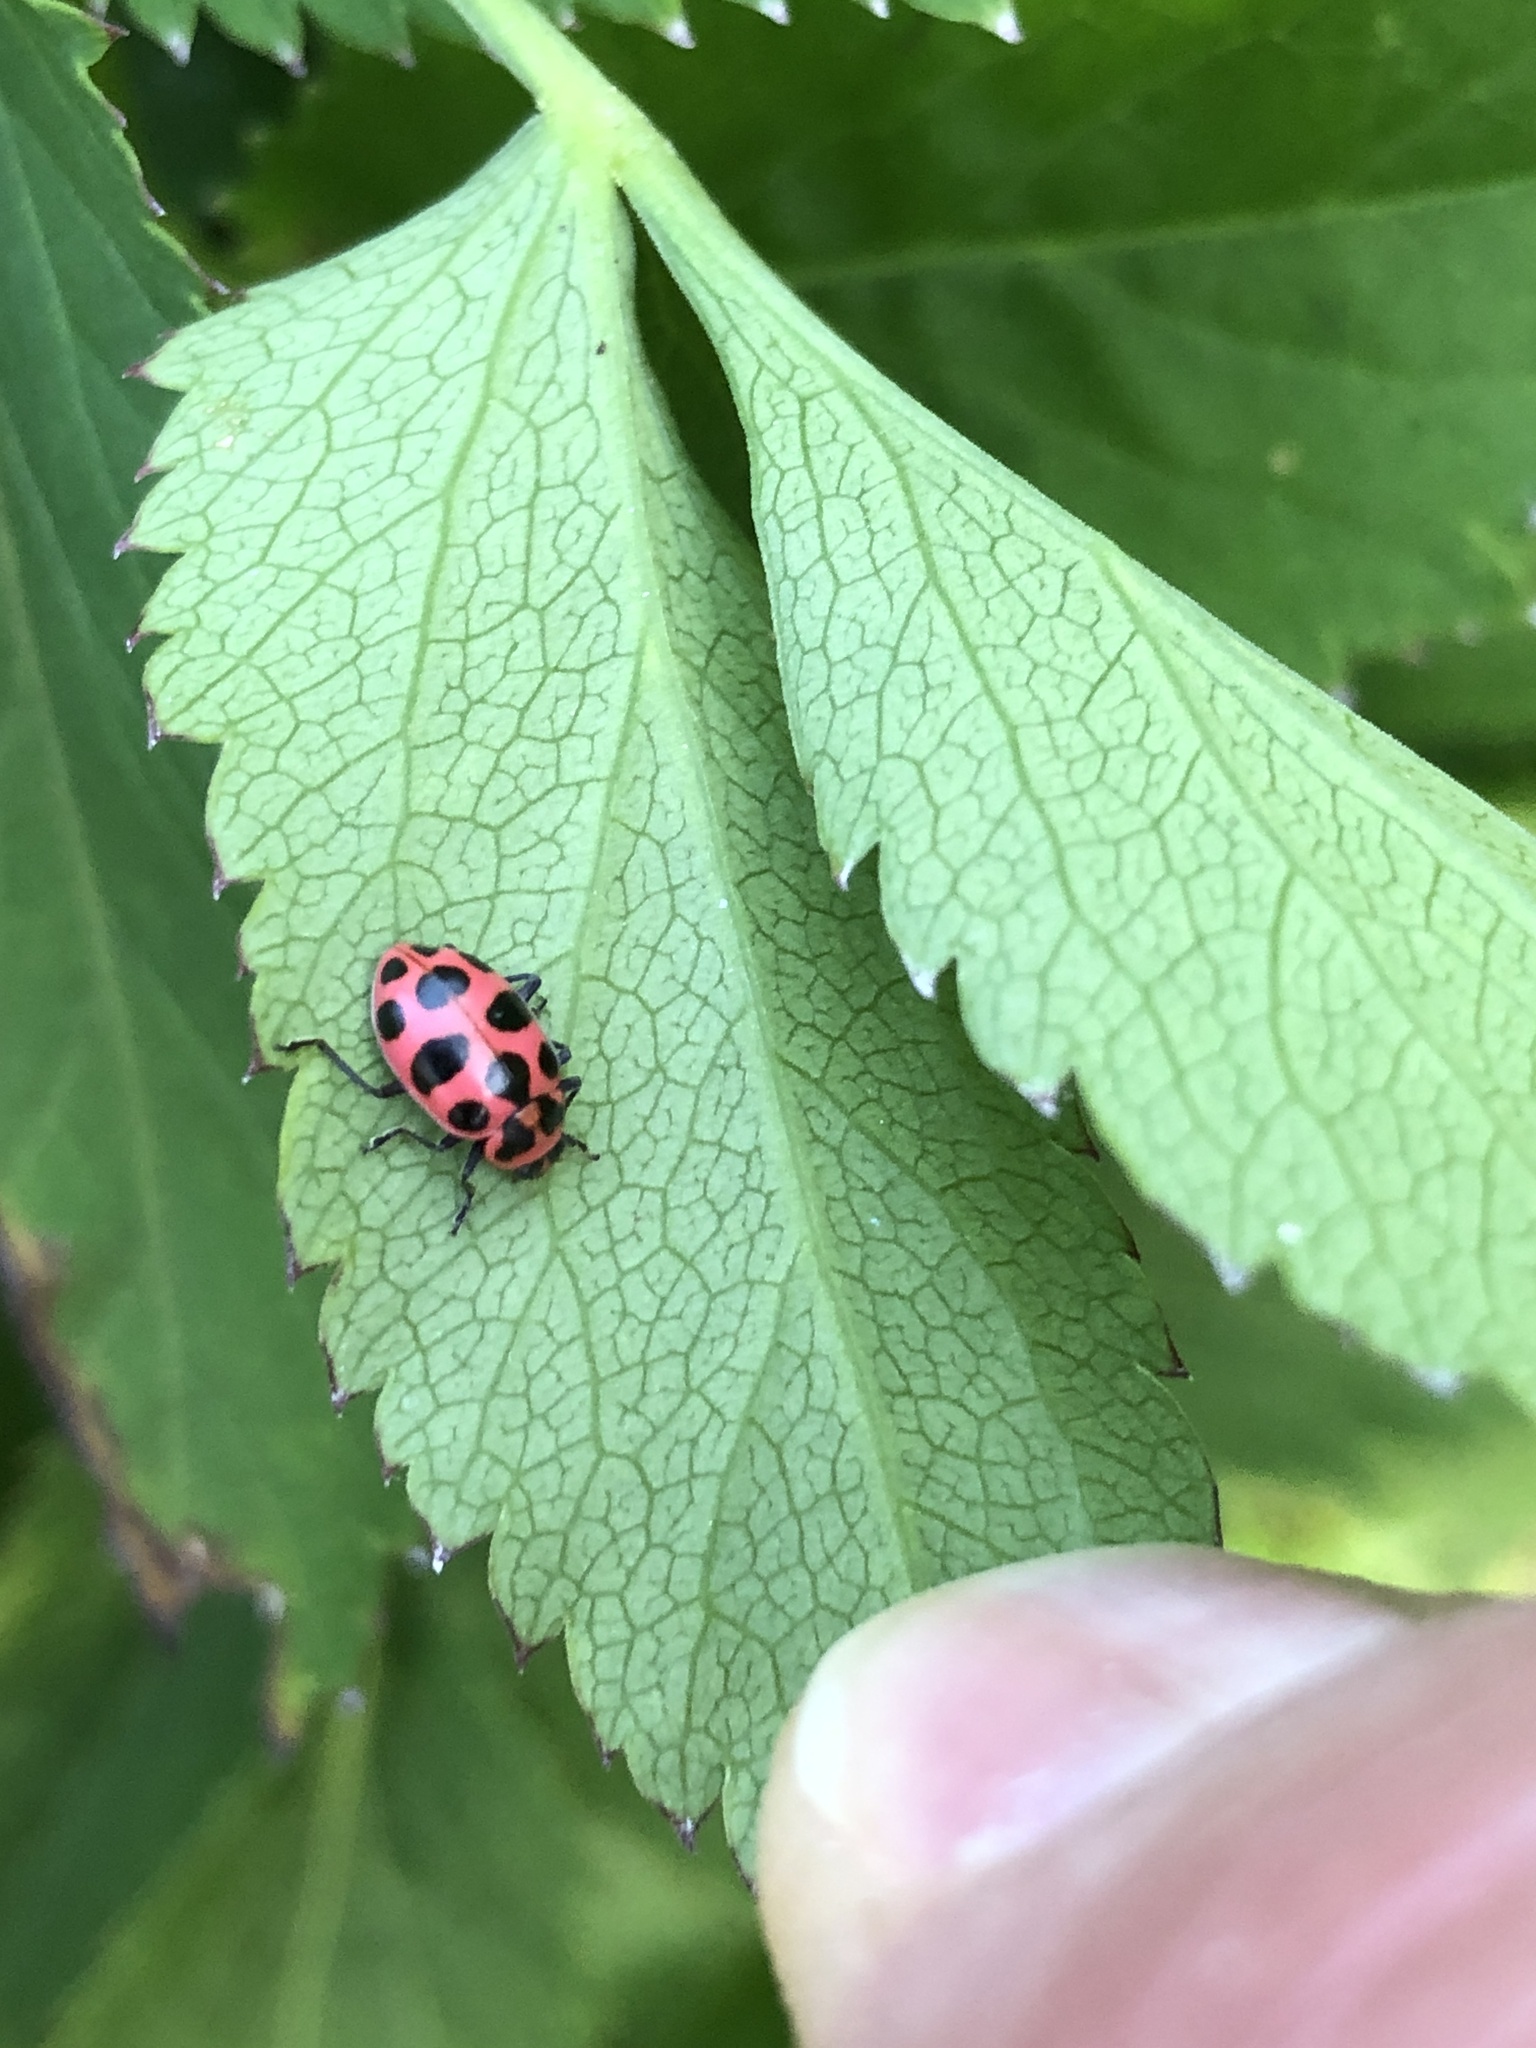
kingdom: Animalia
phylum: Arthropoda
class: Insecta
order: Coleoptera
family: Coccinellidae
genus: Coleomegilla
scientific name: Coleomegilla maculata
